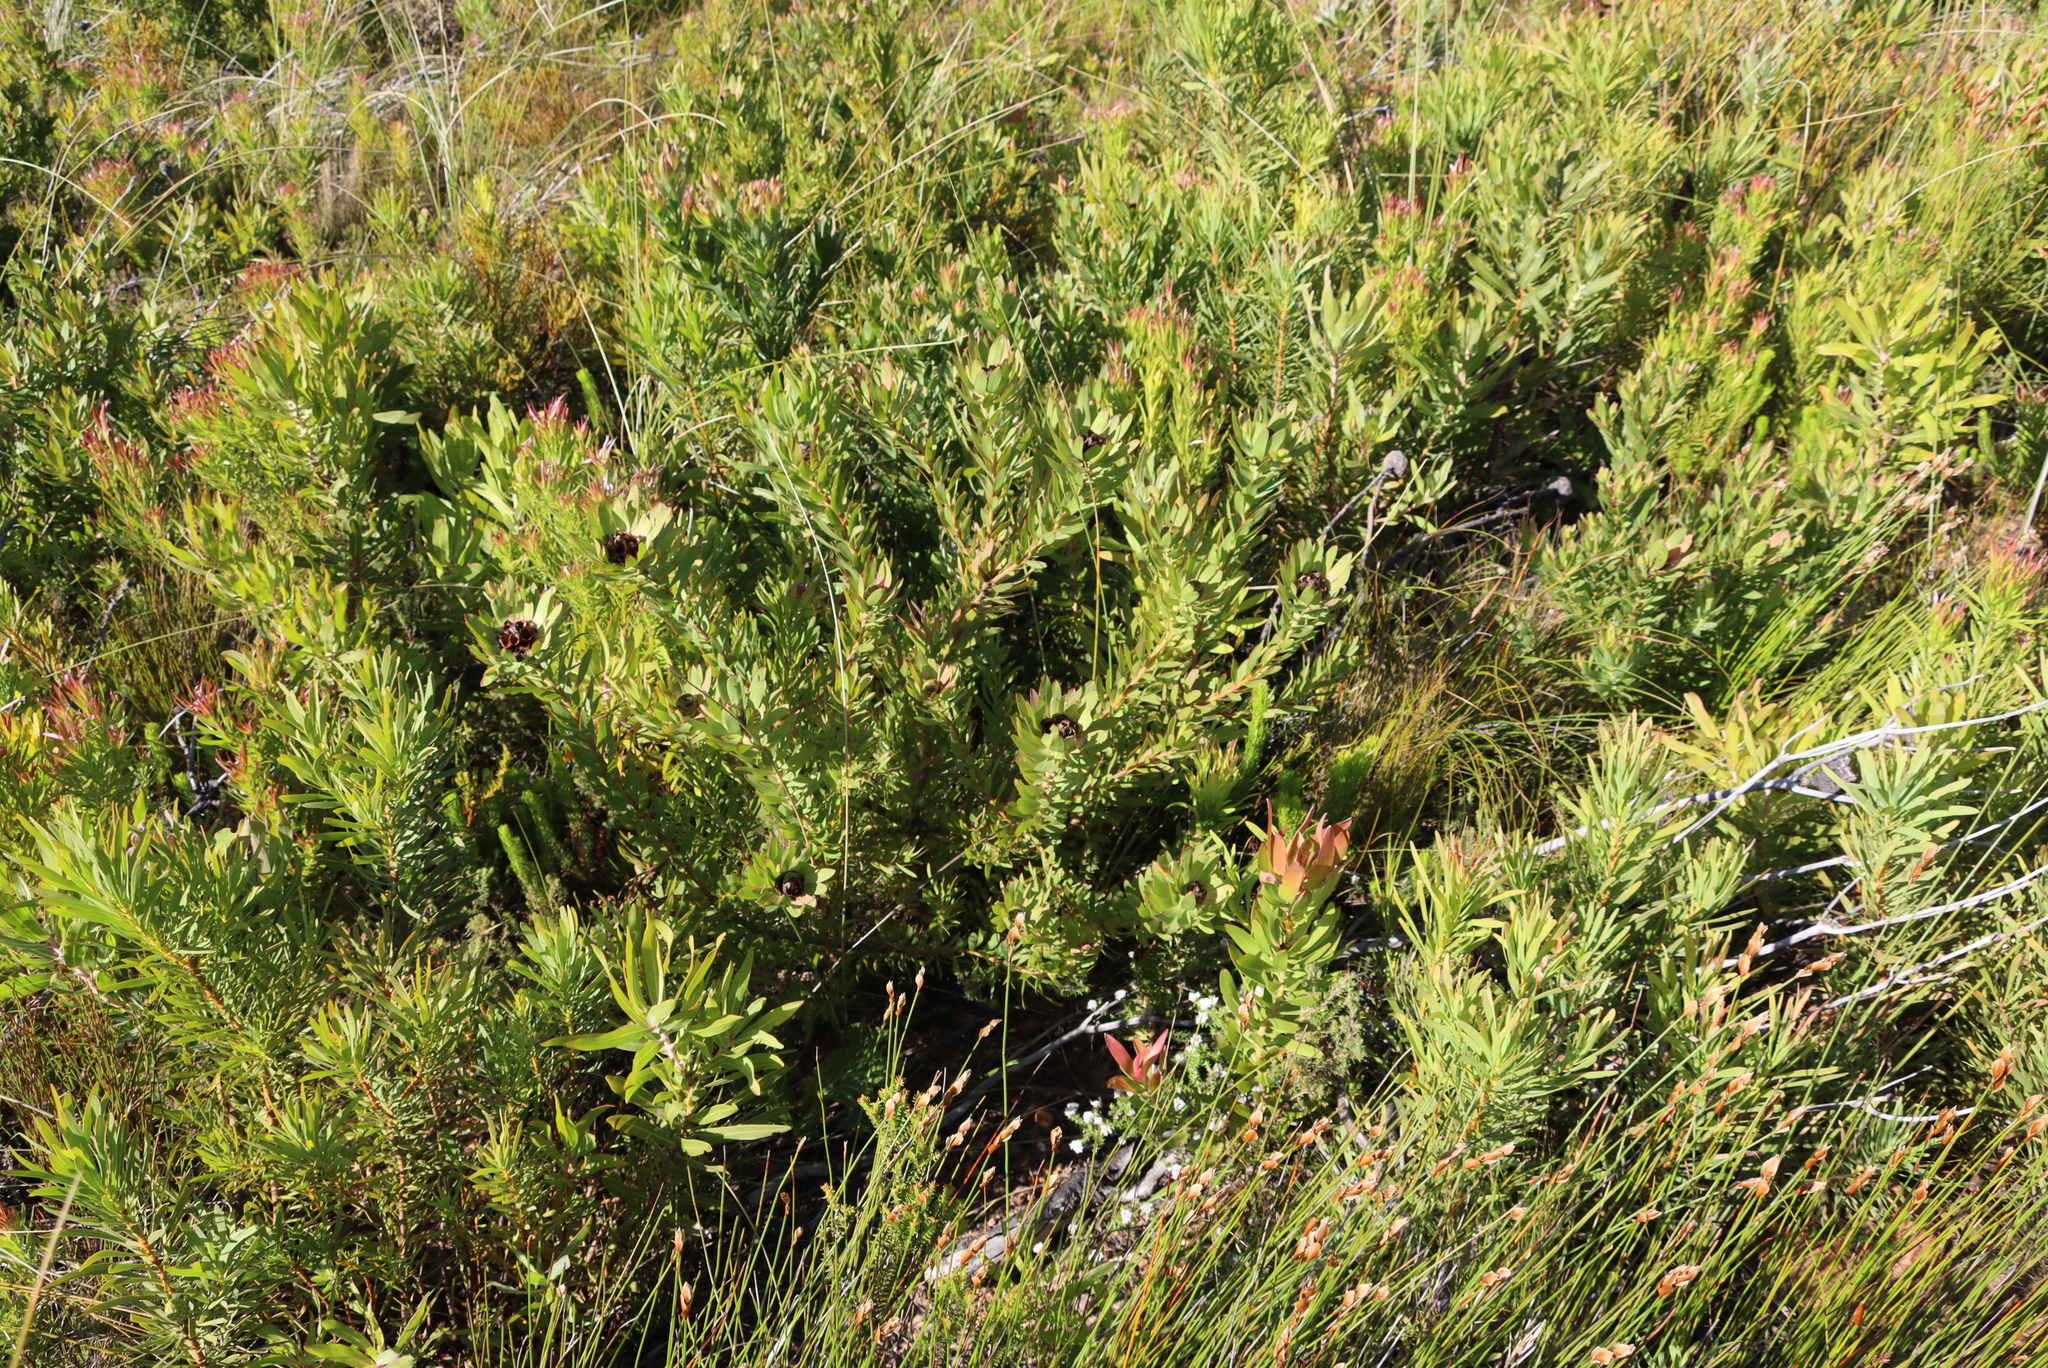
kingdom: Plantae
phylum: Tracheophyta
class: Magnoliopsida
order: Proteales
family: Proteaceae
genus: Leucadendron
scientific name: Leucadendron sessile
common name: Western sunbush
